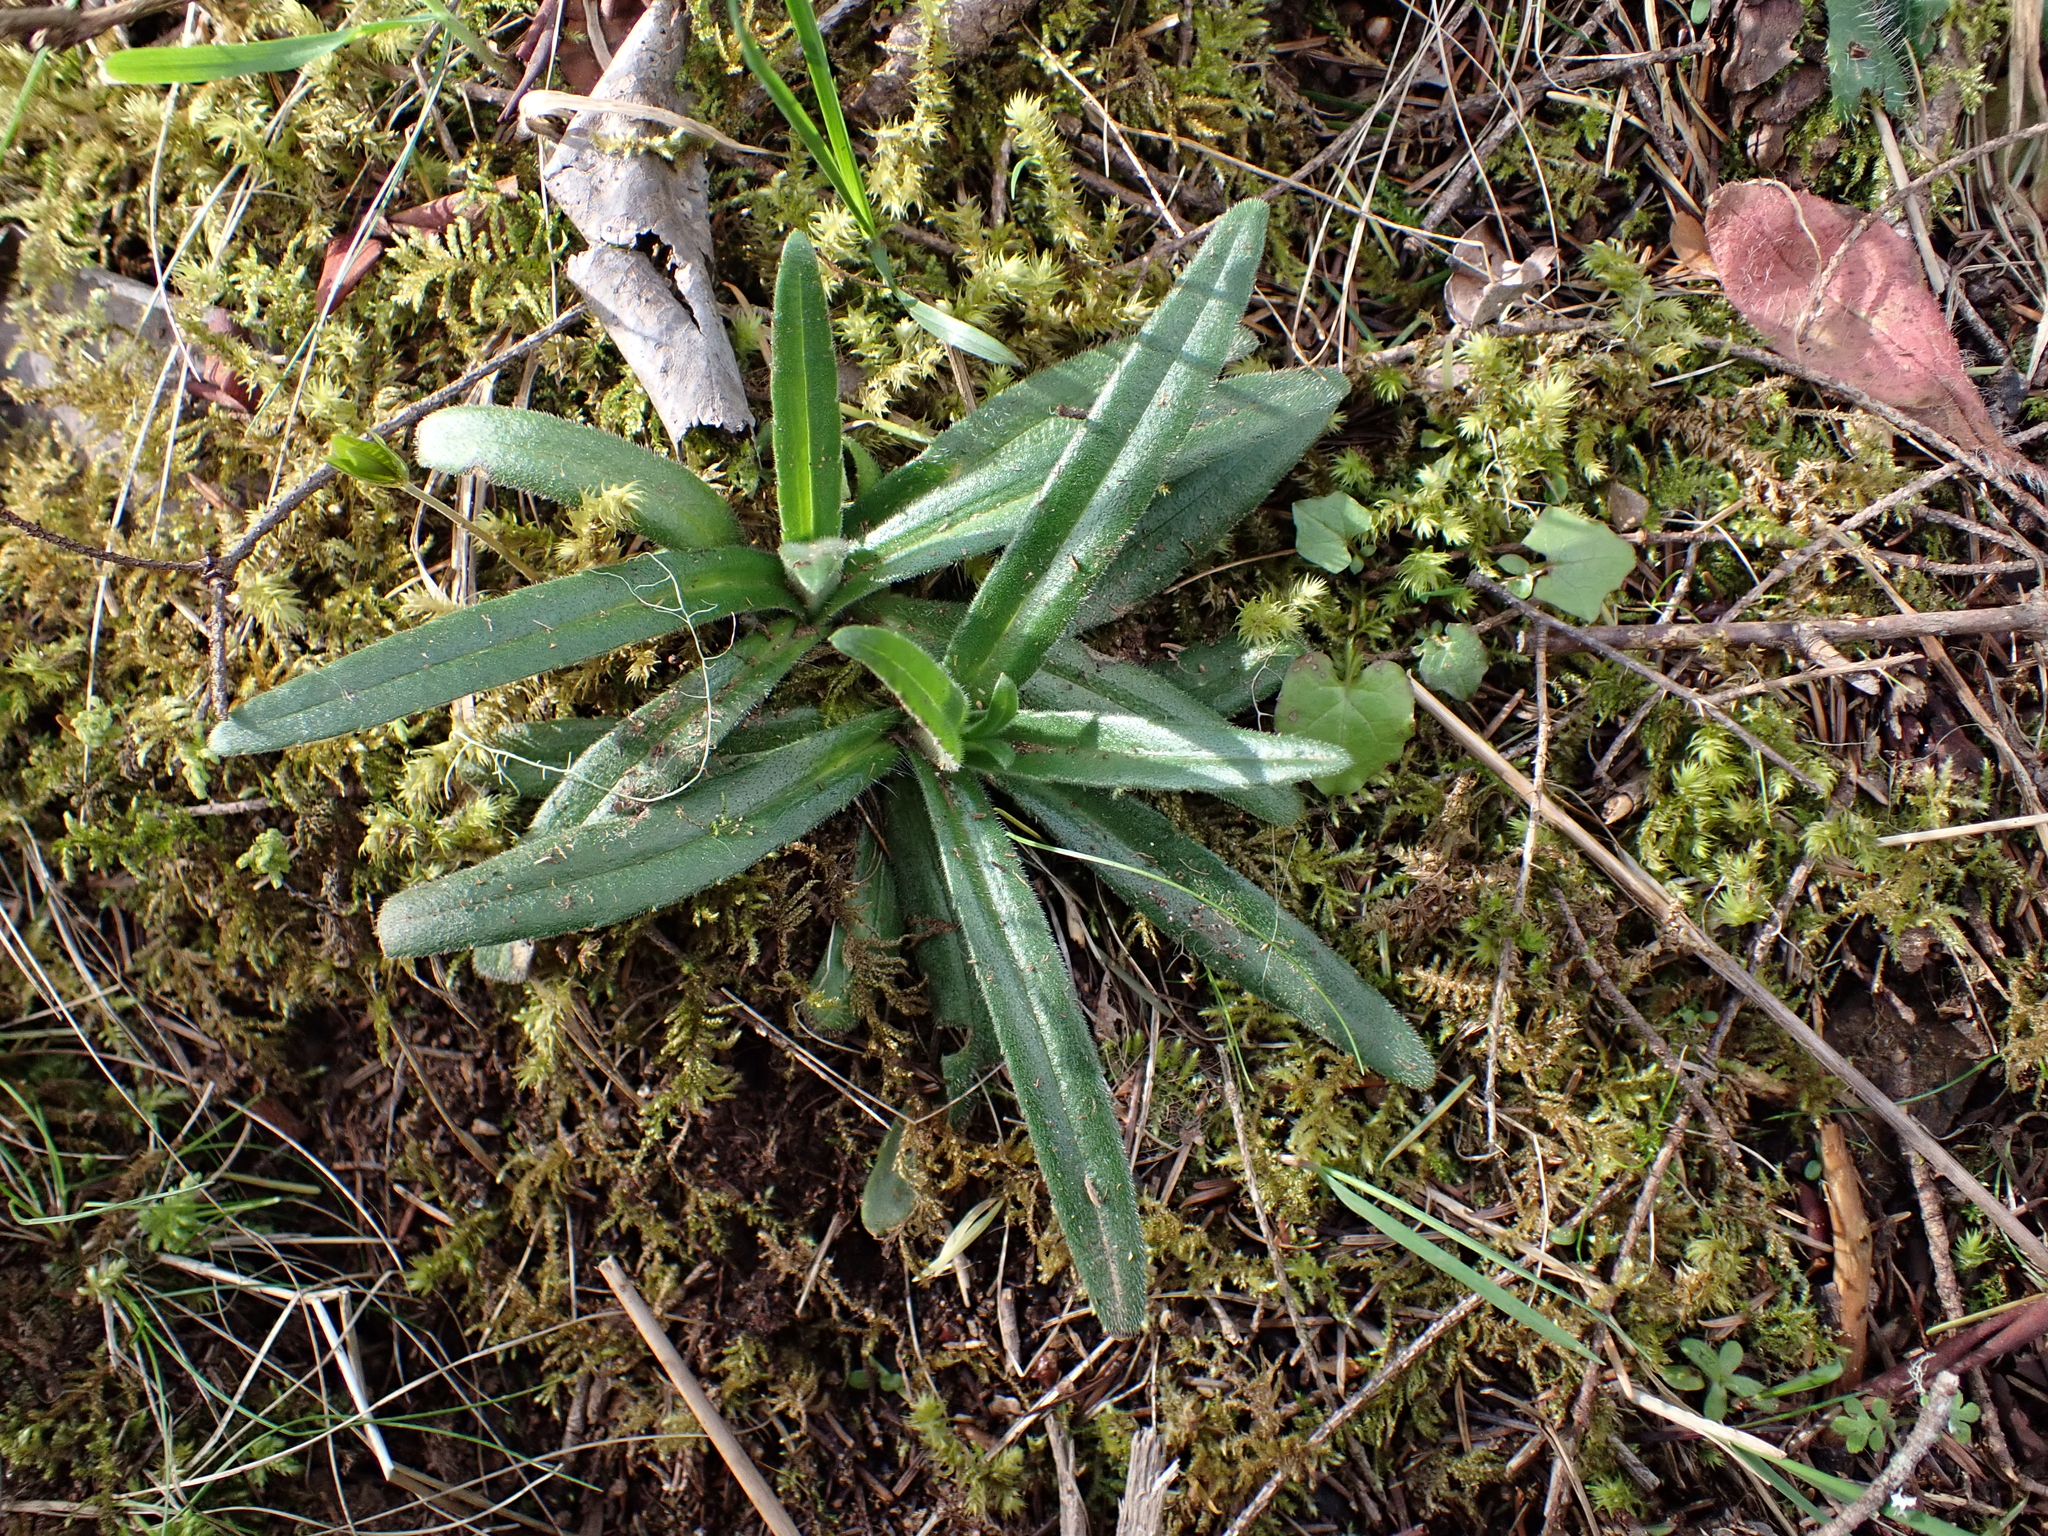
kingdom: Plantae
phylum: Tracheophyta
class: Magnoliopsida
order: Asterales
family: Asteraceae
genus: Anisocarpus
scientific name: Anisocarpus madioides
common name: Woodland madia
